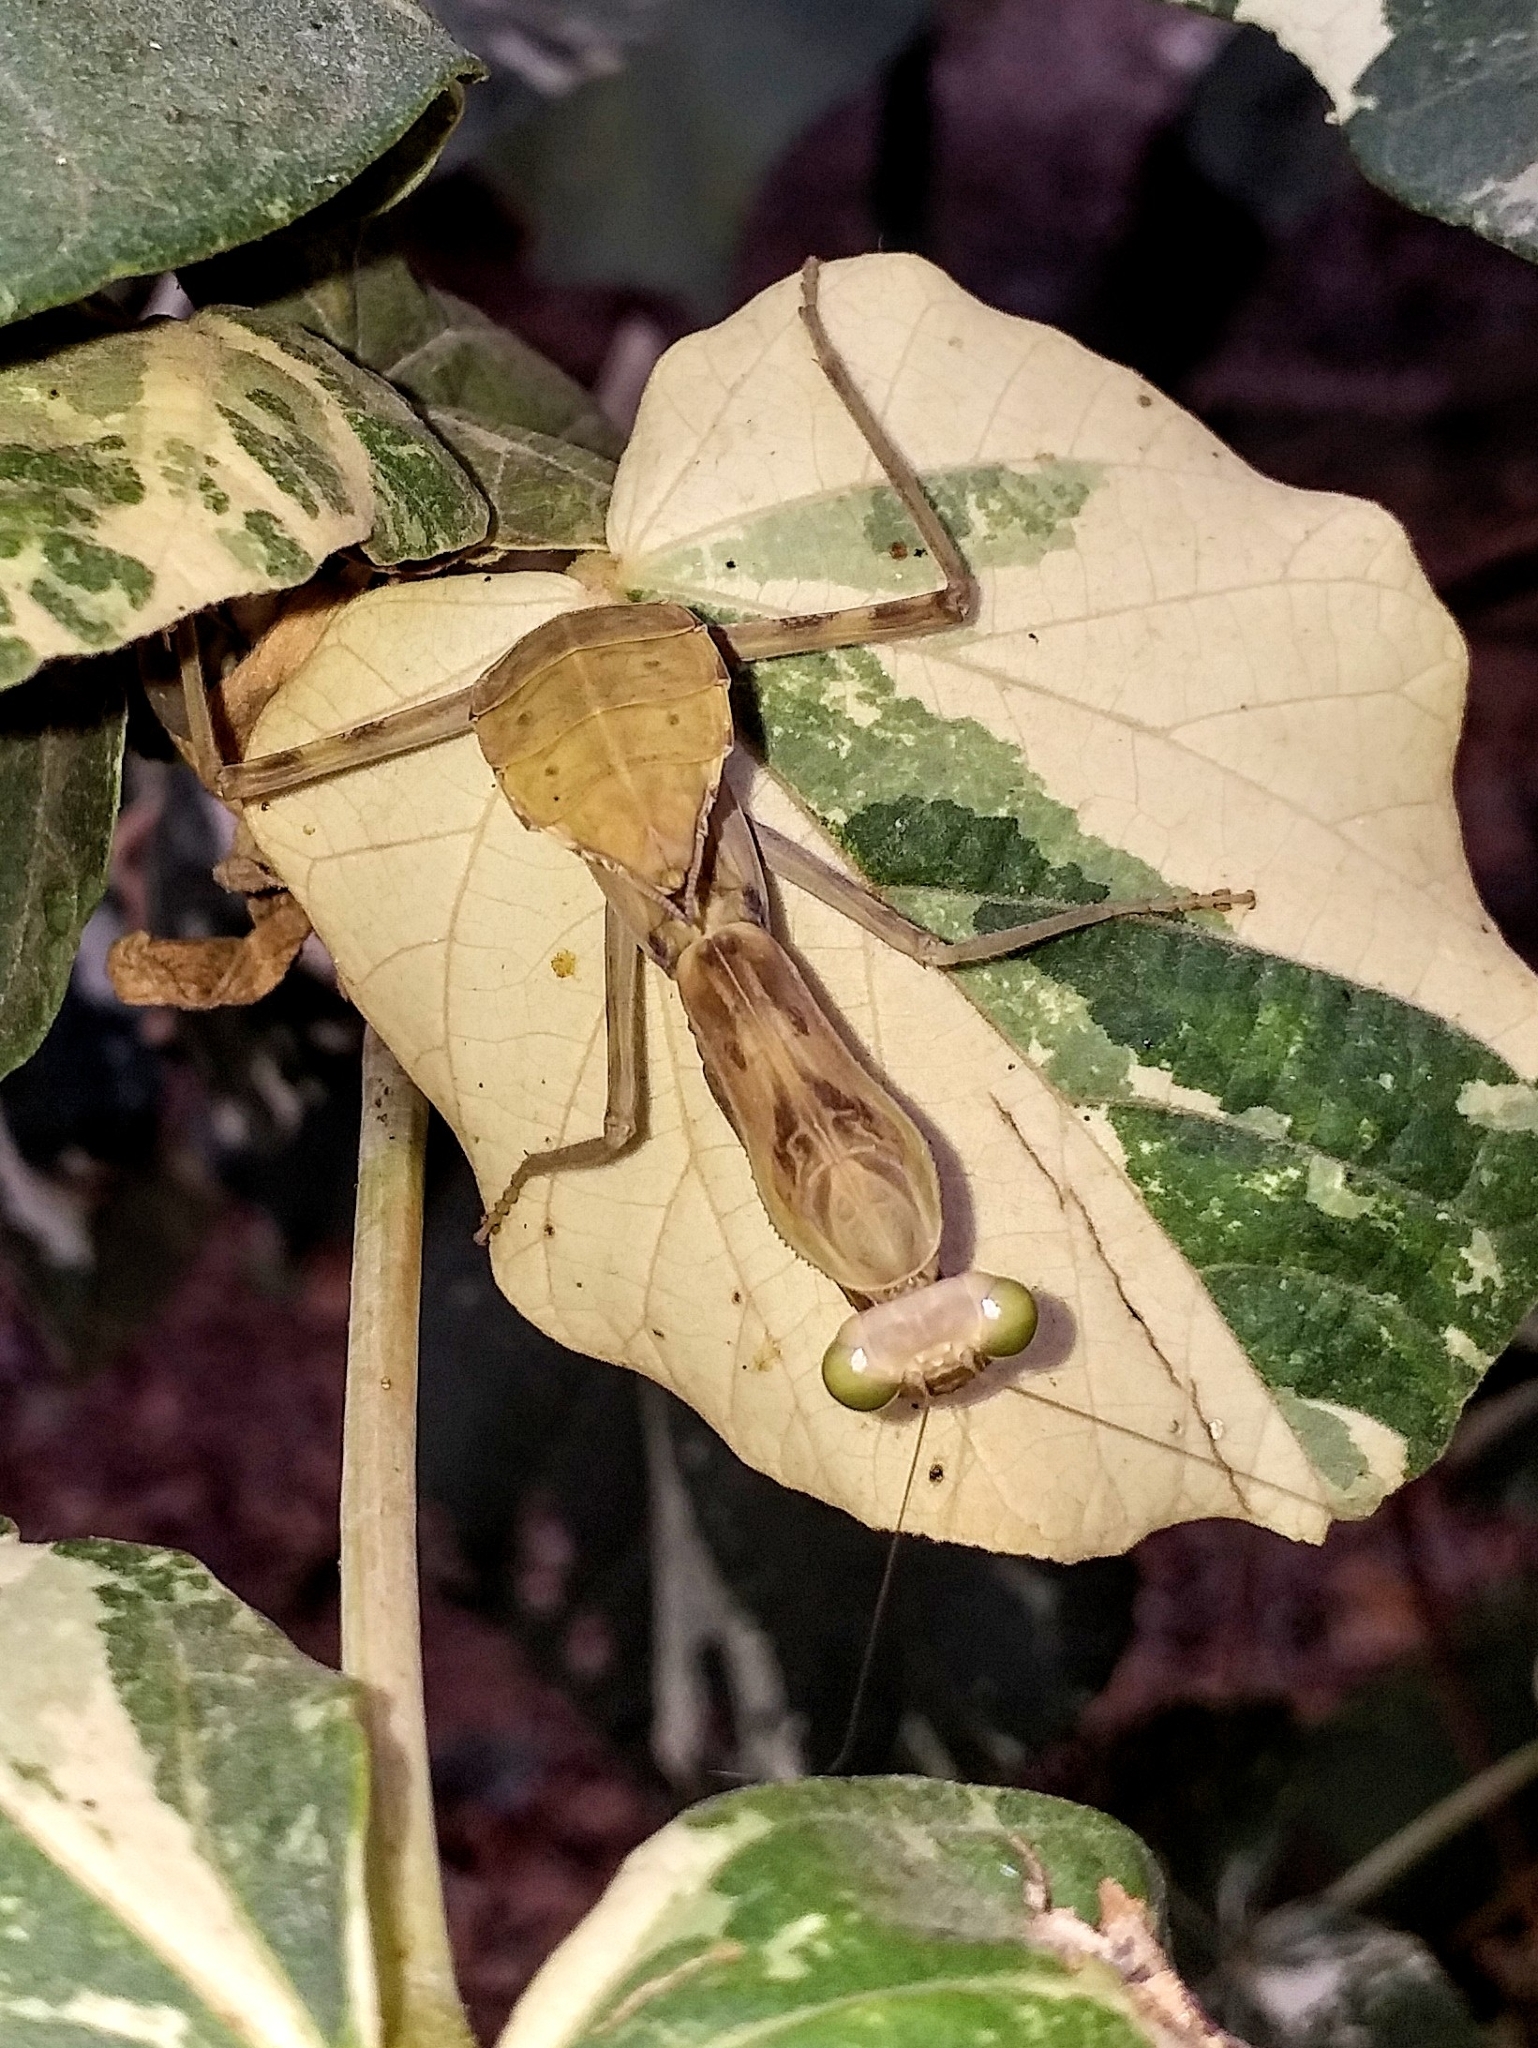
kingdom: Animalia
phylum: Arthropoda
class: Insecta
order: Mantodea
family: Mantidae
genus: Hierodula
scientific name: Hierodula tenuidentata
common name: Giant asian mantis
